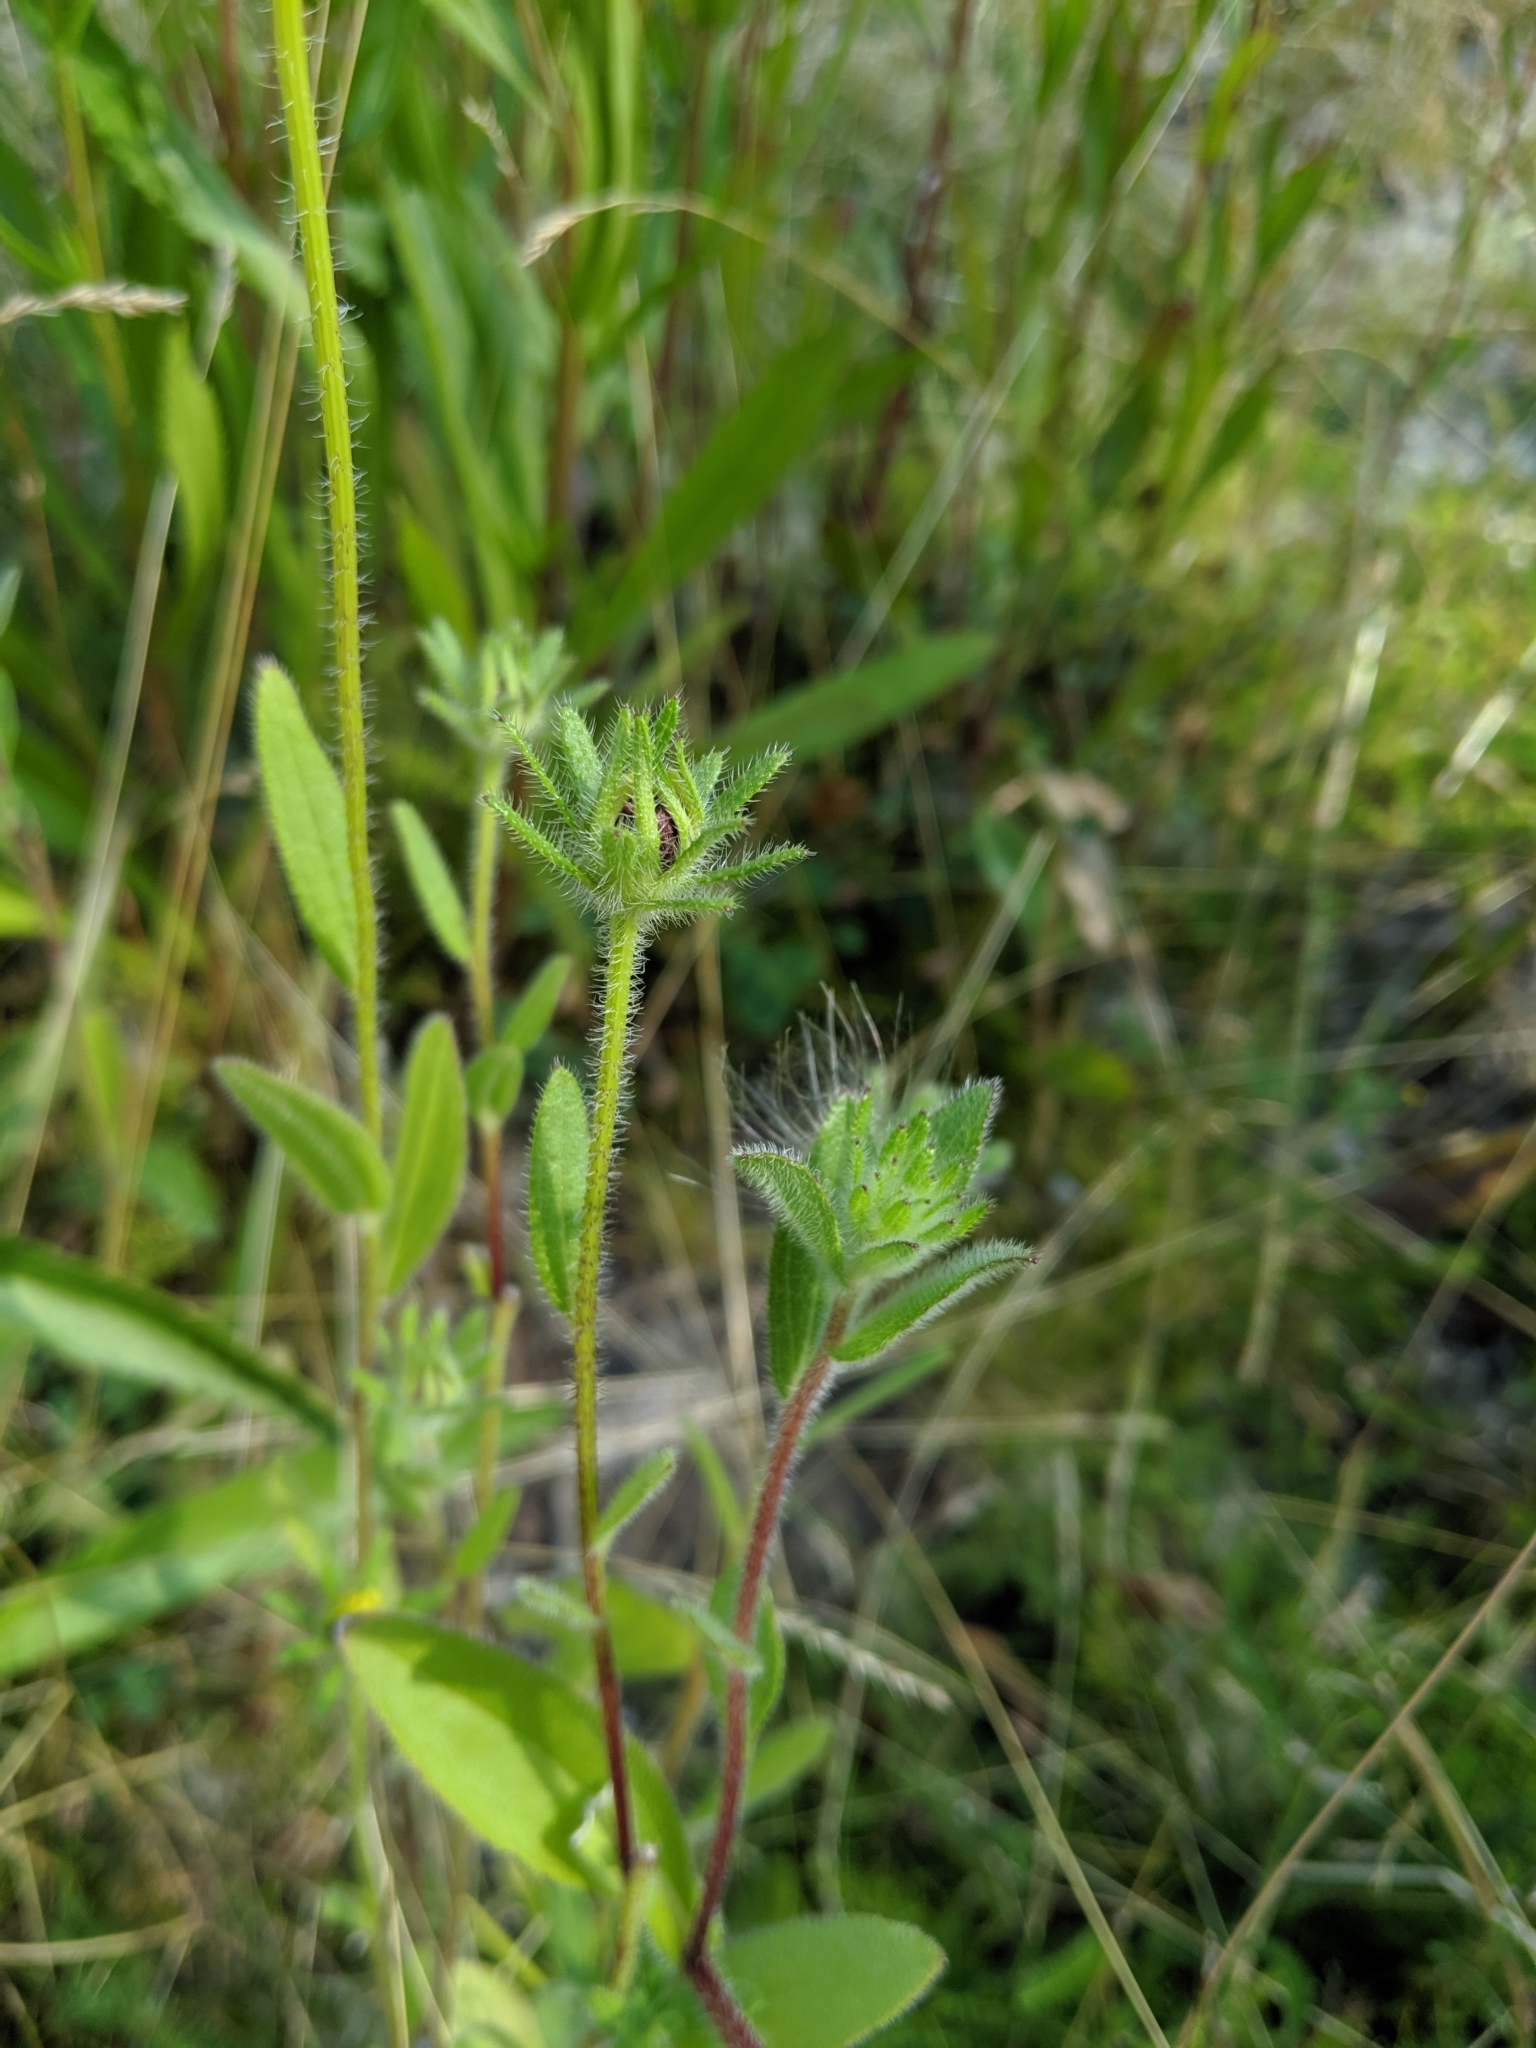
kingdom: Plantae
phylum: Tracheophyta
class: Magnoliopsida
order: Asterales
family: Asteraceae
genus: Rudbeckia
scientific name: Rudbeckia hirta
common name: Black-eyed-susan
